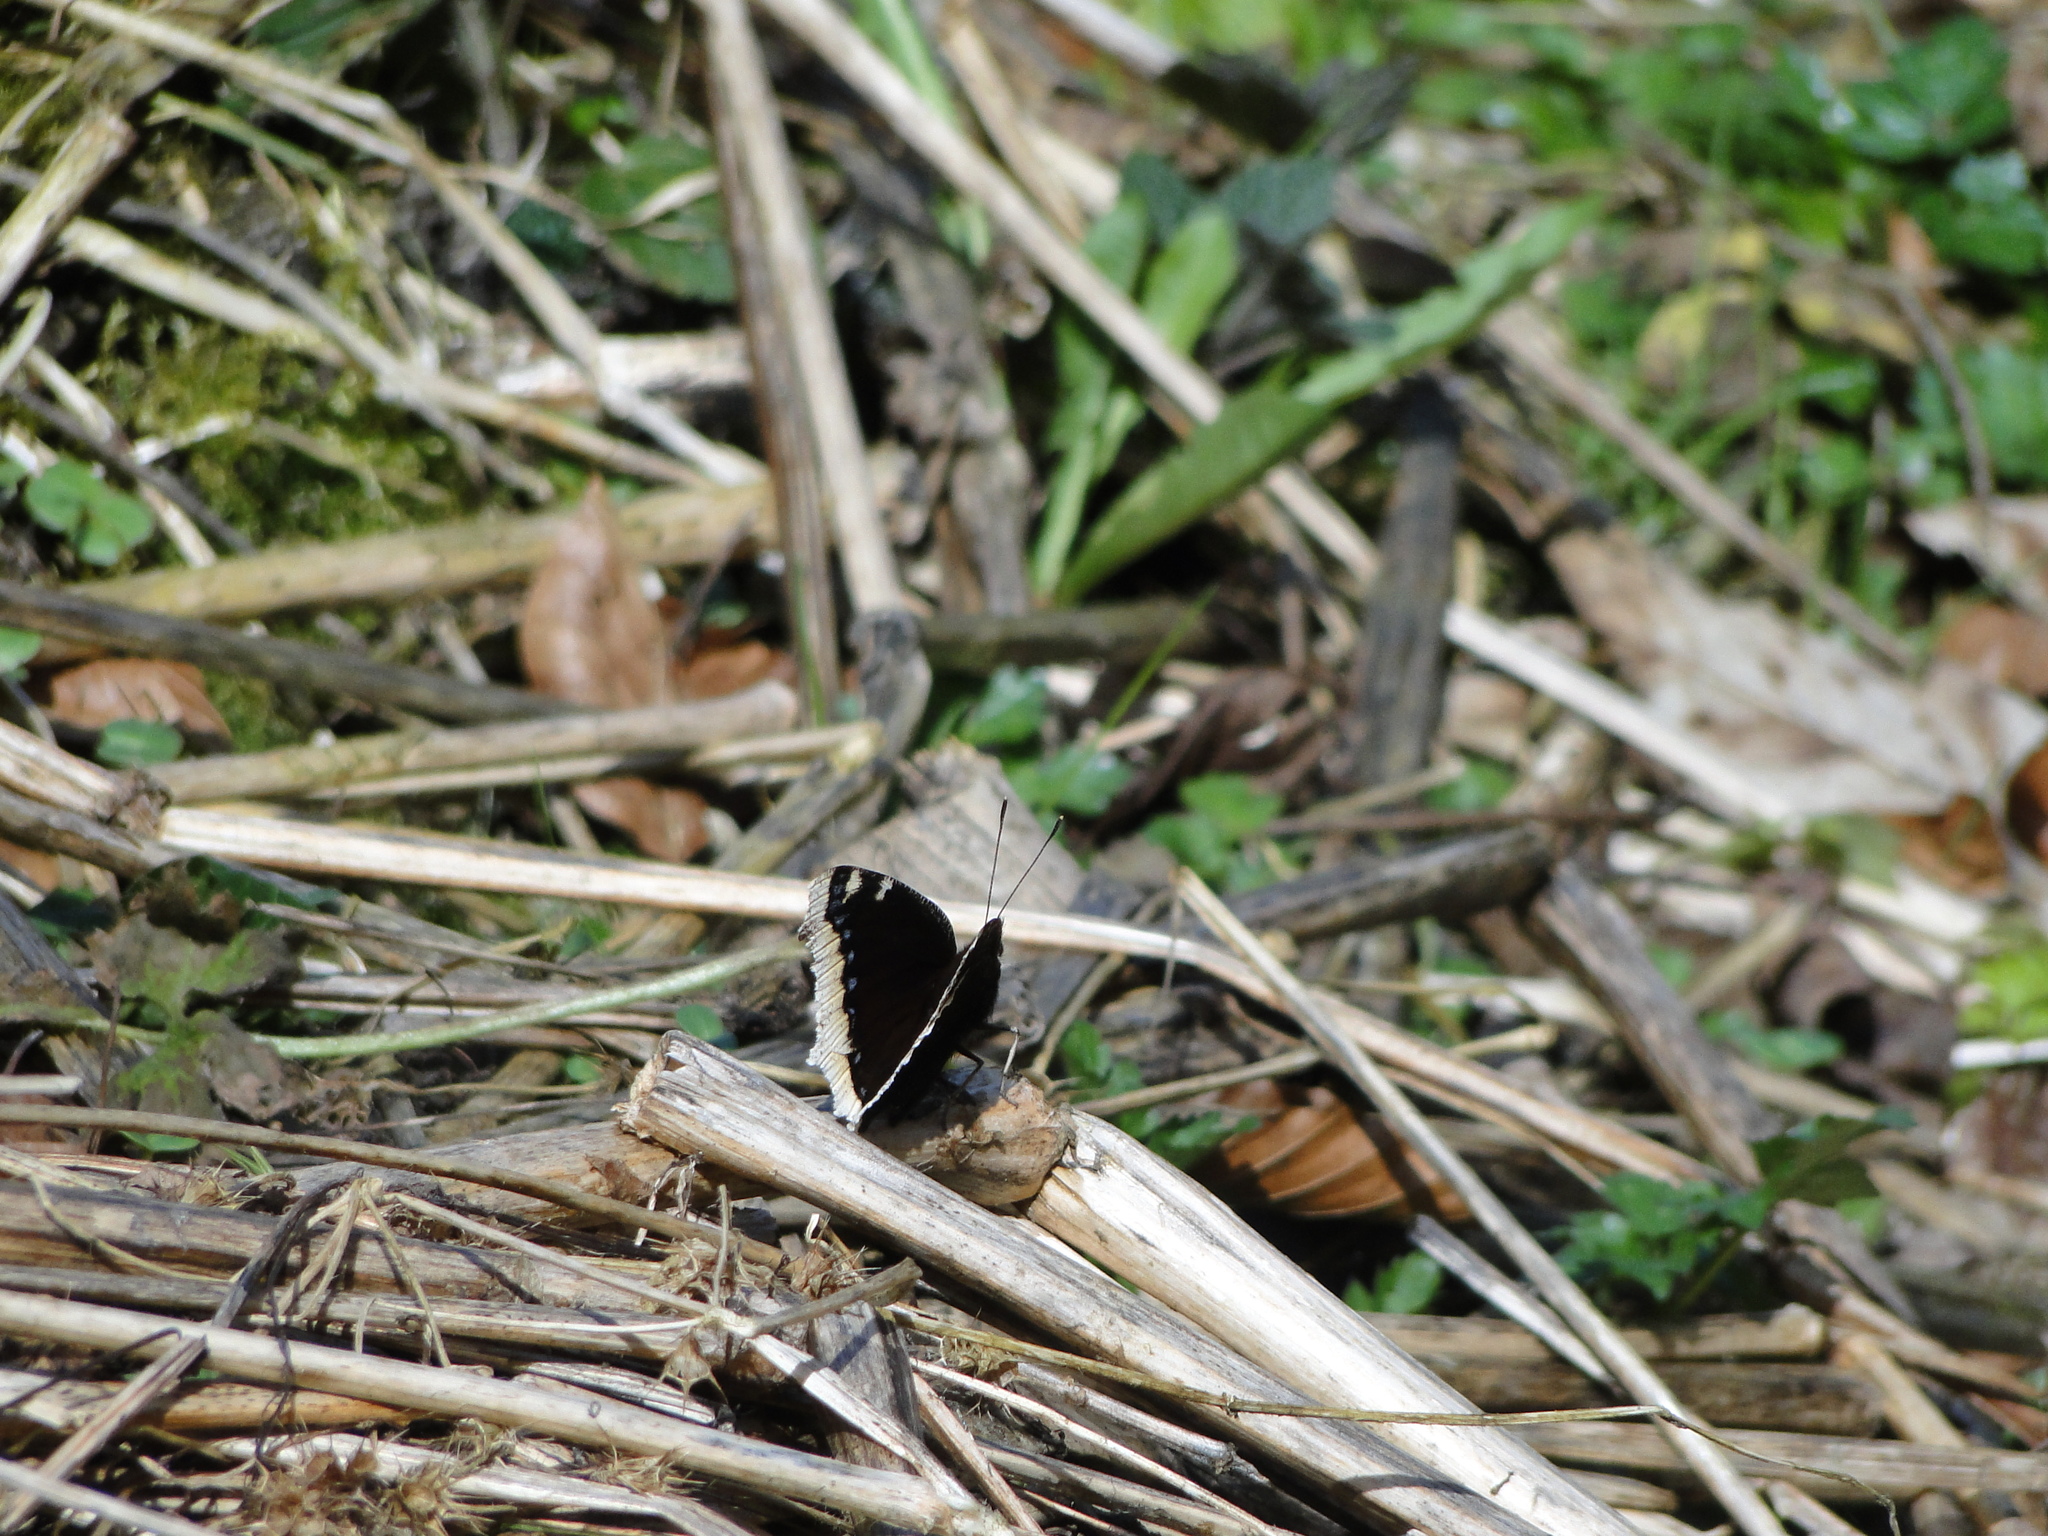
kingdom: Animalia
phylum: Arthropoda
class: Insecta
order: Lepidoptera
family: Nymphalidae
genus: Nymphalis
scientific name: Nymphalis antiopa
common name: Camberwell beauty
